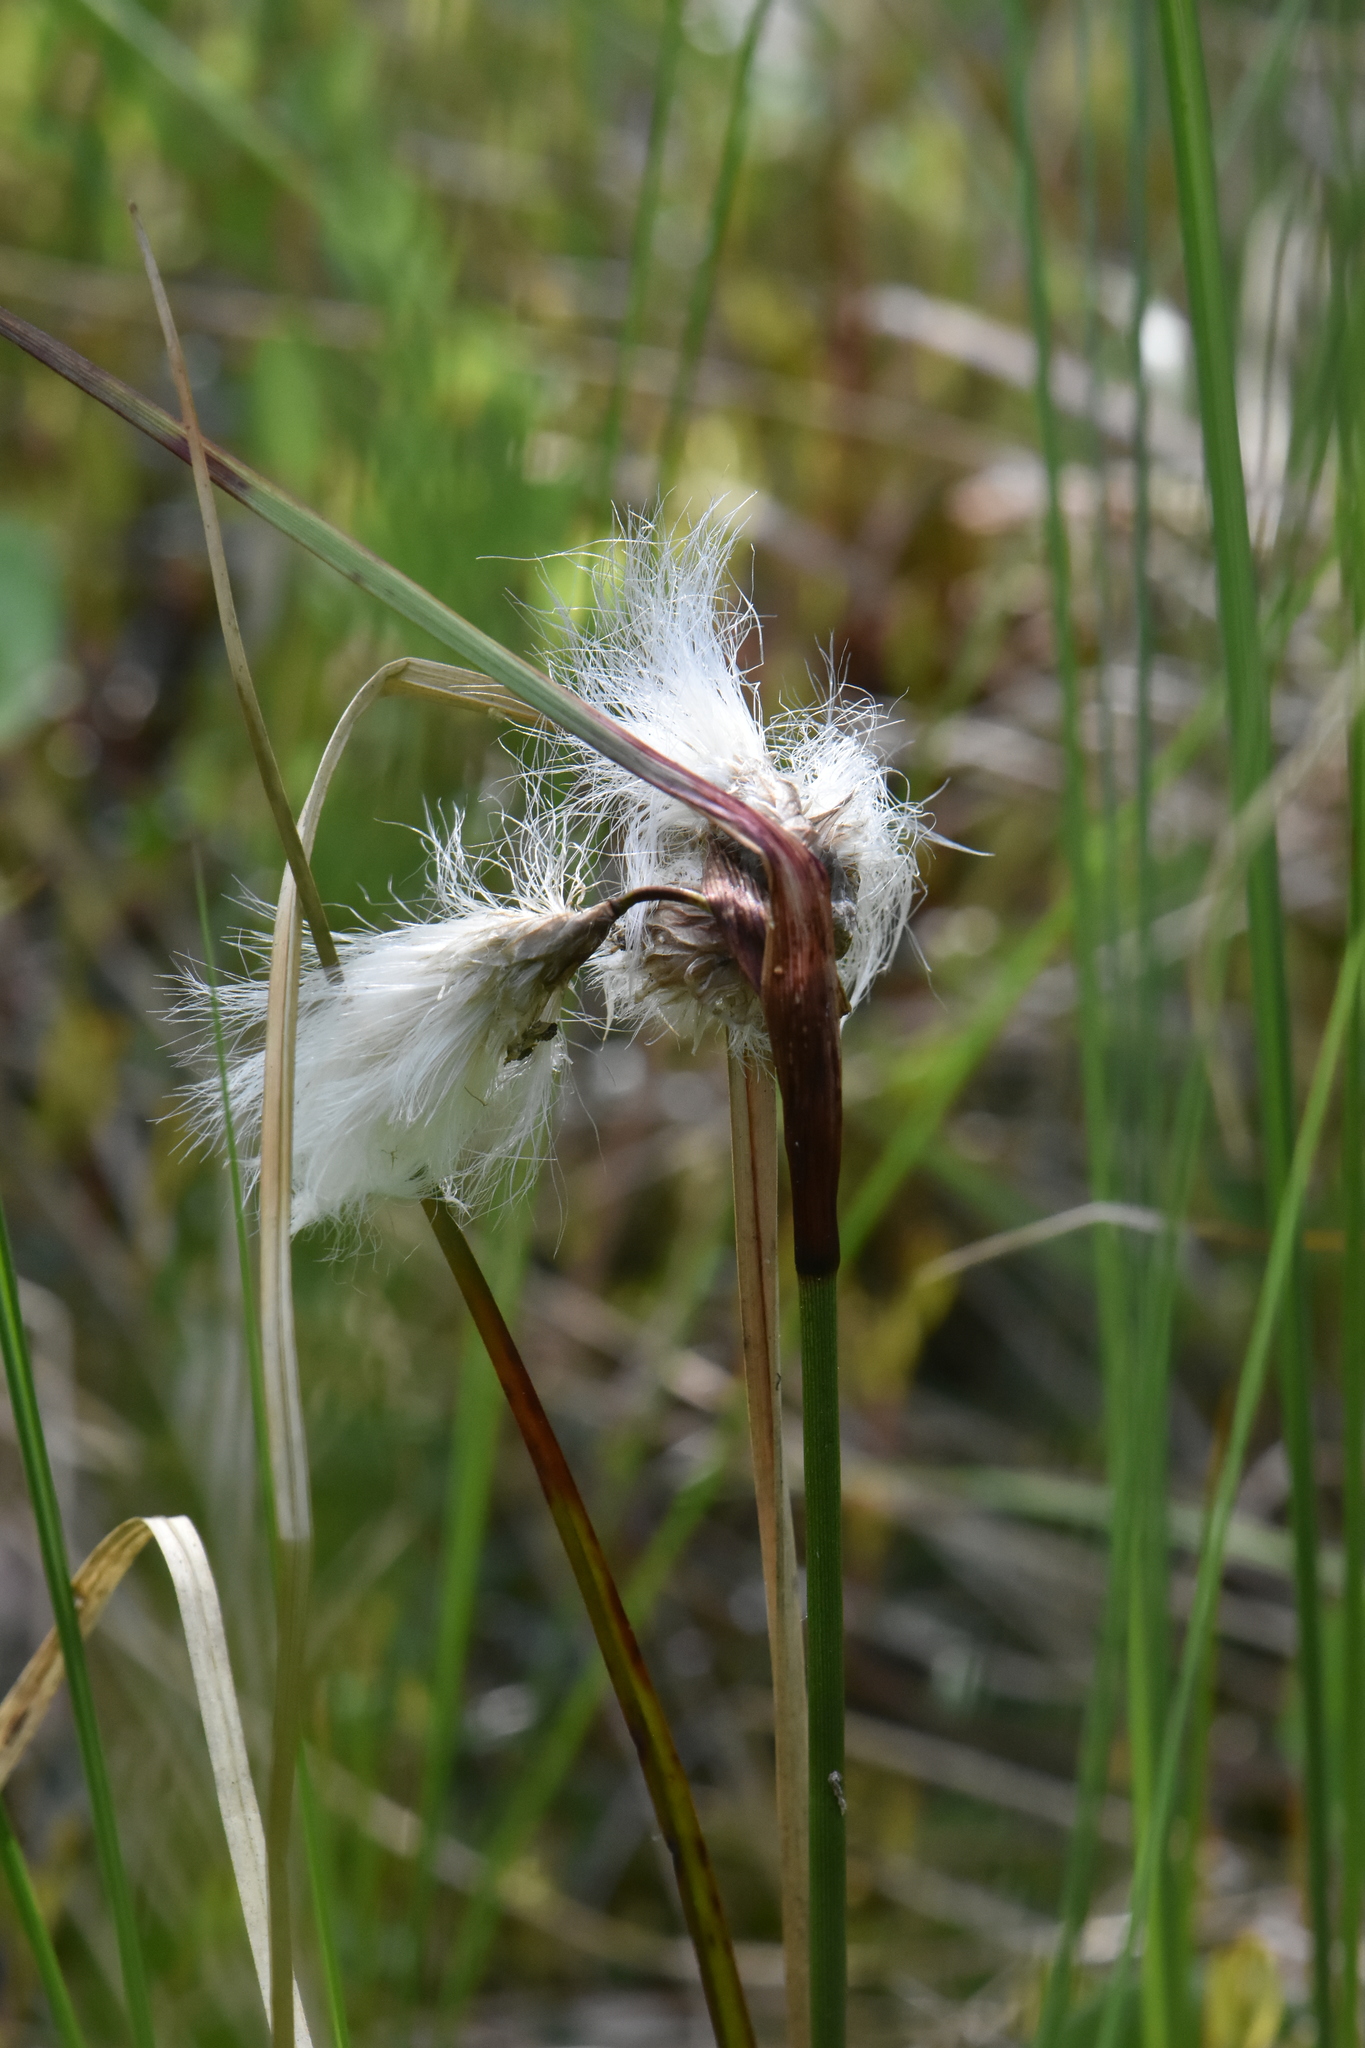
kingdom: Plantae
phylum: Tracheophyta
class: Liliopsida
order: Poales
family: Cyperaceae
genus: Eriophorum
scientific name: Eriophorum angustifolium
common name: Common cottongrass
